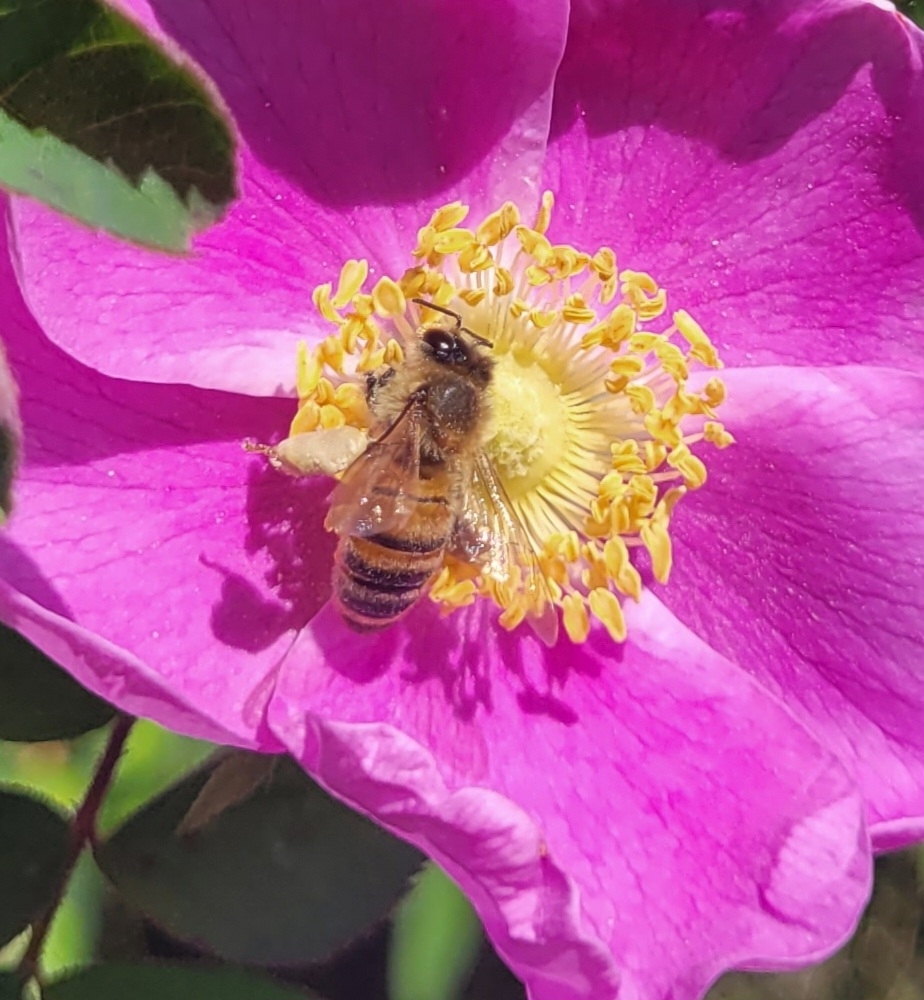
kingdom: Animalia
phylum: Arthropoda
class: Insecta
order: Hymenoptera
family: Apidae
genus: Apis
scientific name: Apis mellifera
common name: Honey bee
